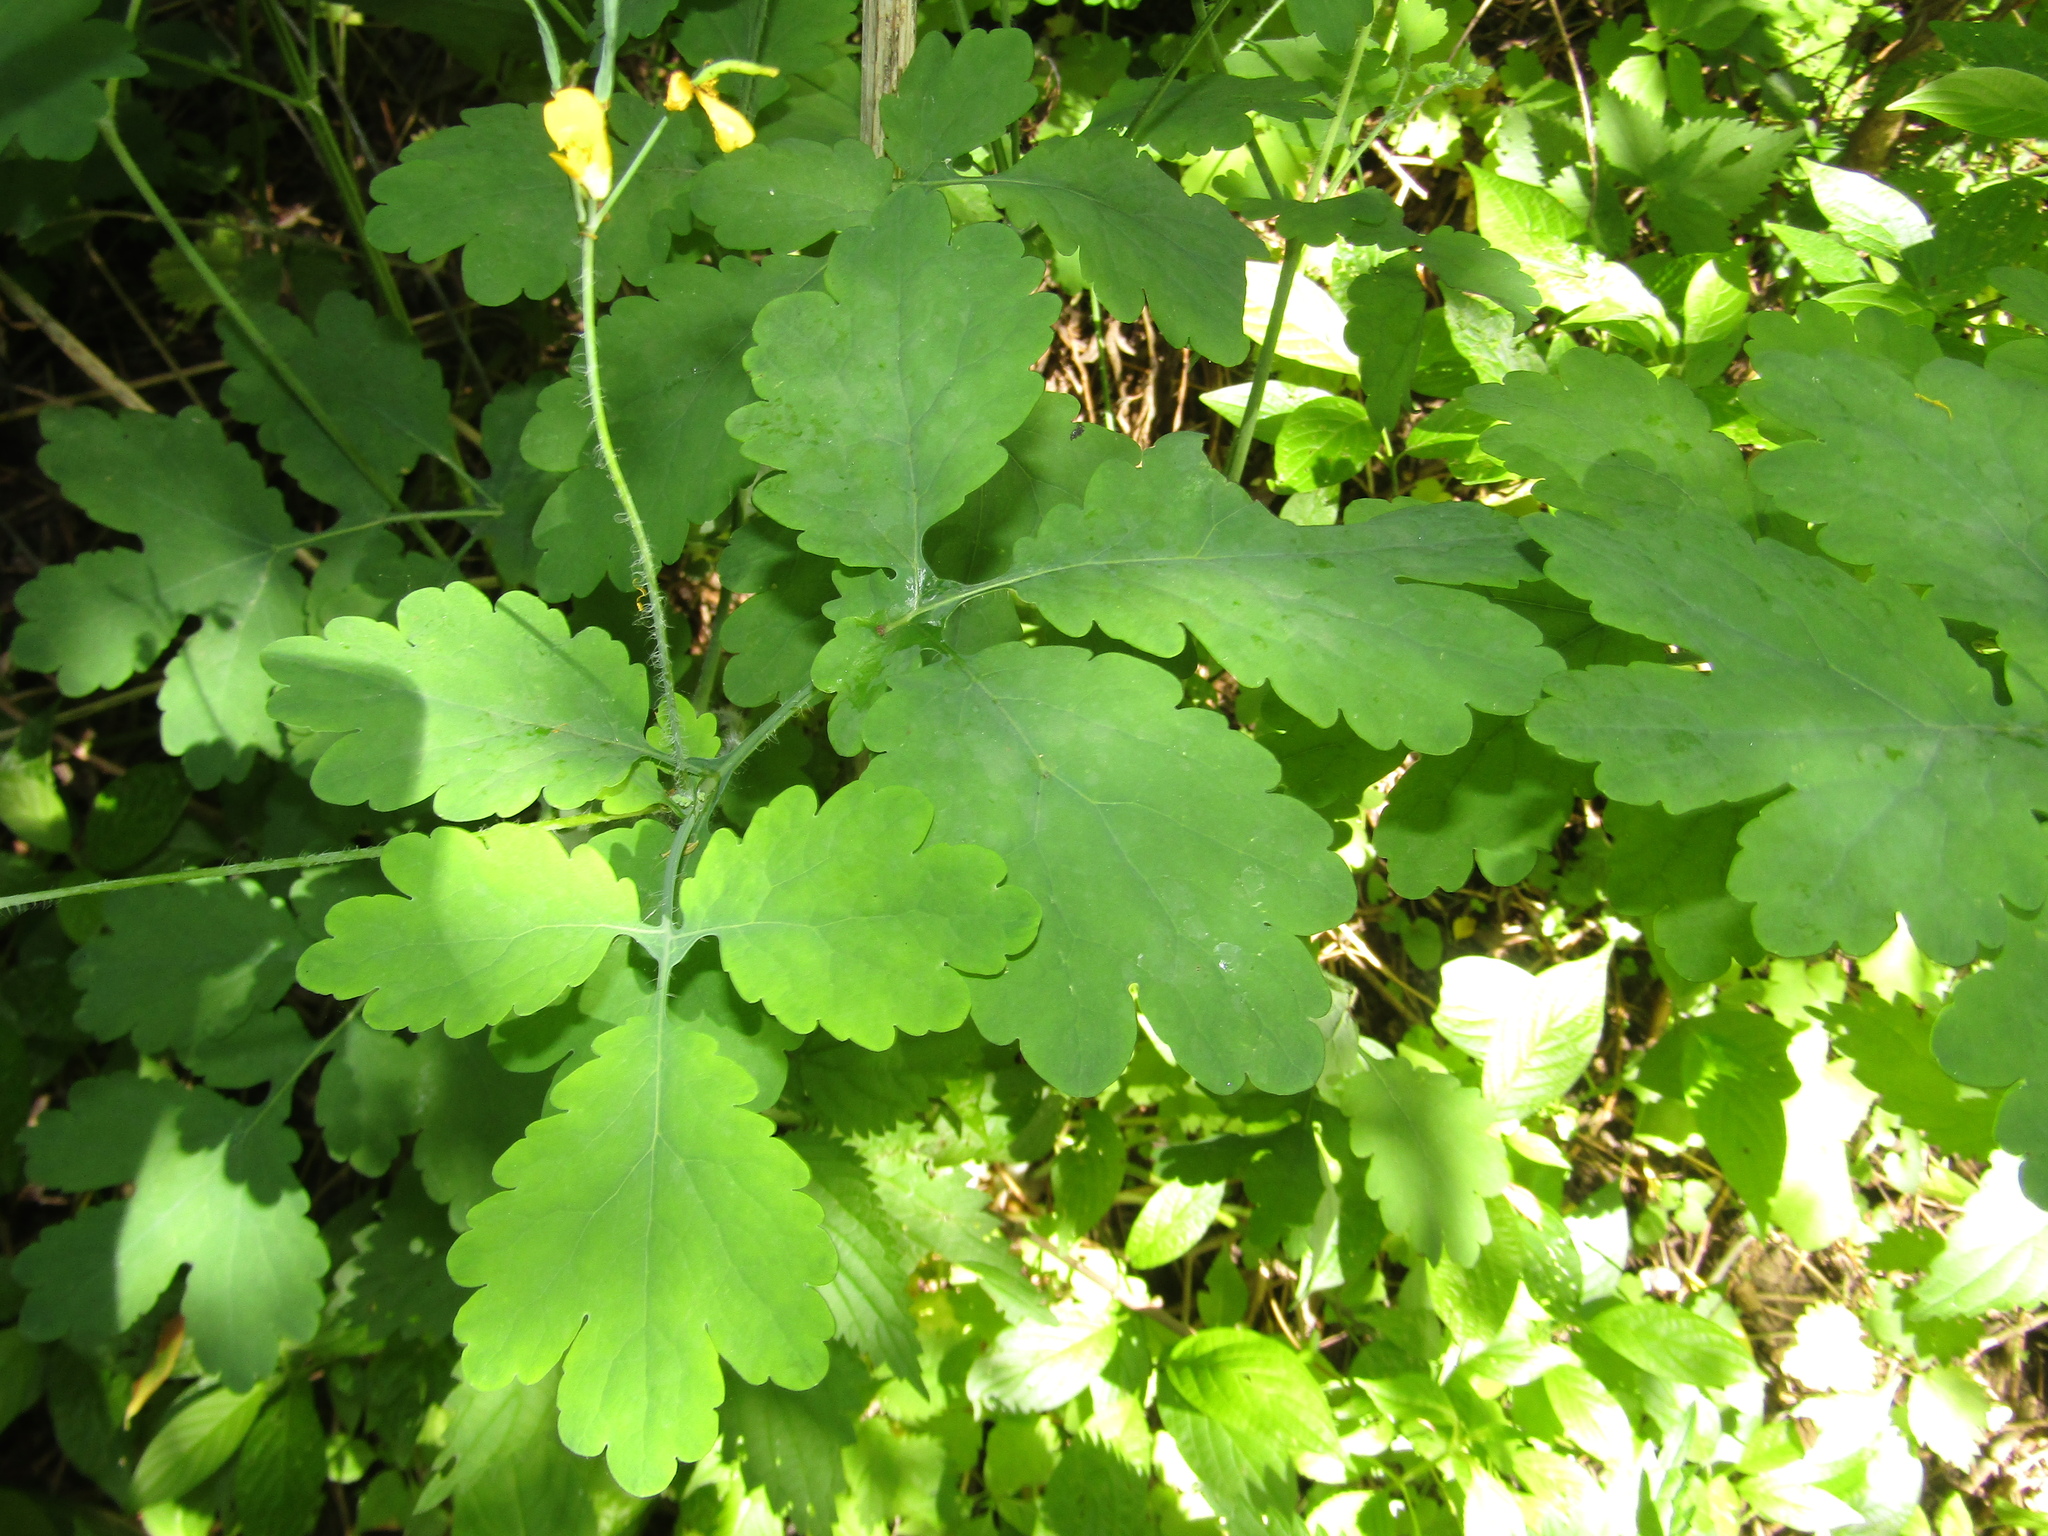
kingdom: Plantae
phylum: Tracheophyta
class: Magnoliopsida
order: Ranunculales
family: Papaveraceae
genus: Chelidonium
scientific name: Chelidonium majus
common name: Greater celandine
